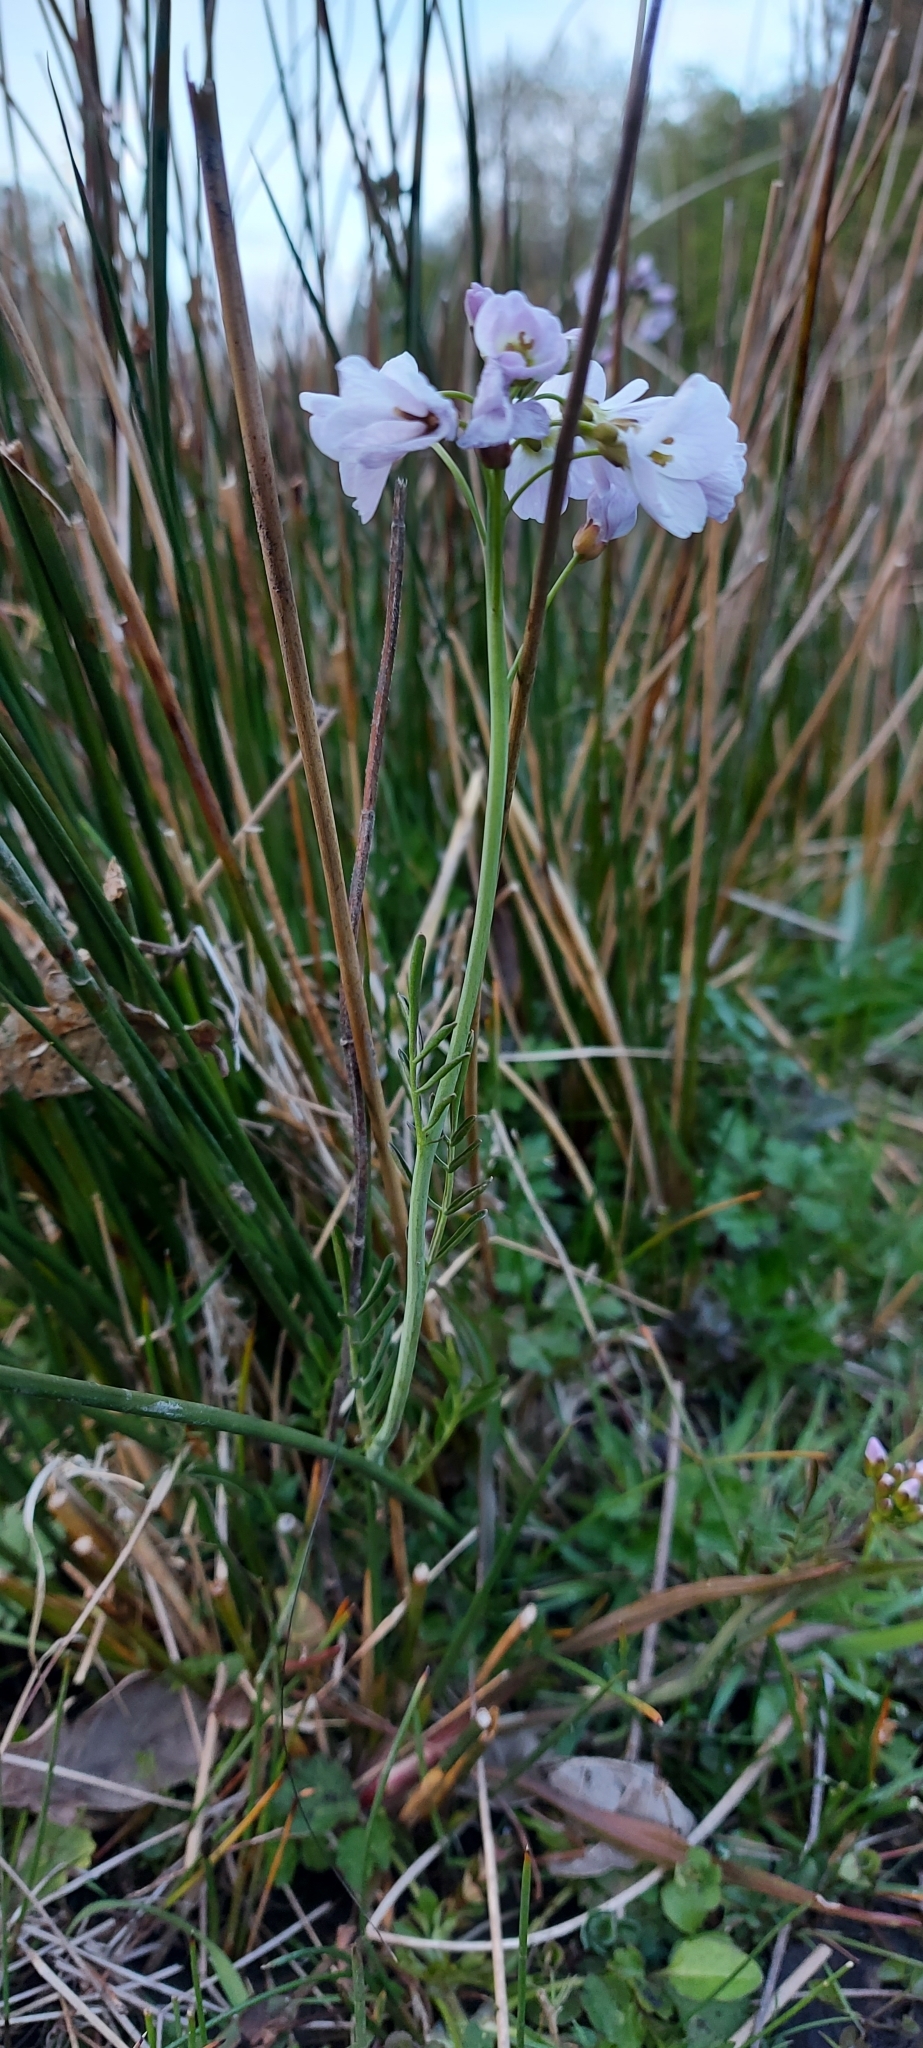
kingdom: Plantae
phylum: Tracheophyta
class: Magnoliopsida
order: Brassicales
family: Brassicaceae
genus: Cardamine
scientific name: Cardamine pratensis
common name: Cuckoo flower
